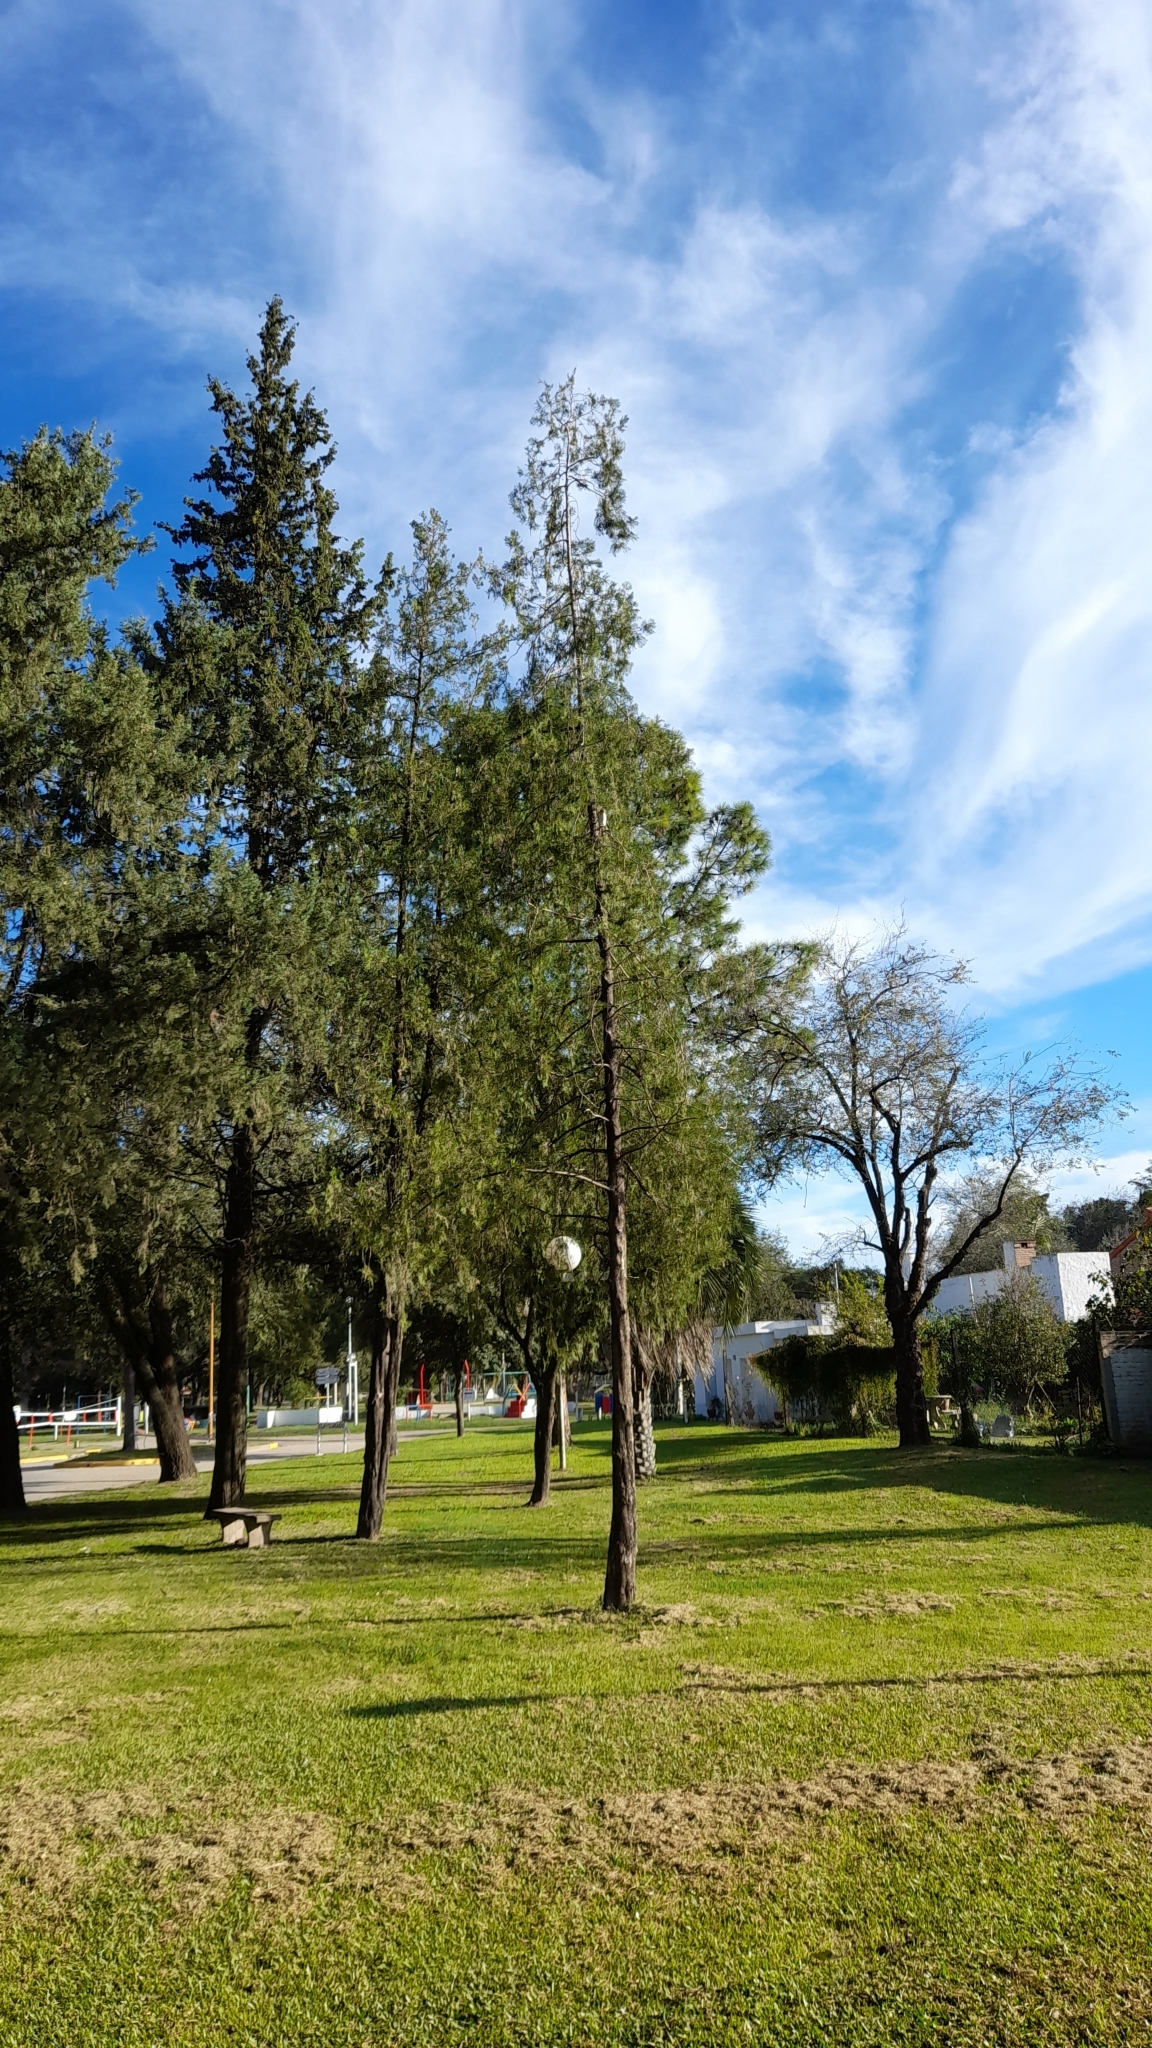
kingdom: Animalia
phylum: Chordata
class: Aves
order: Falconiformes
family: Falconidae
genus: Falco
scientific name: Falco sparverius
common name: American kestrel
